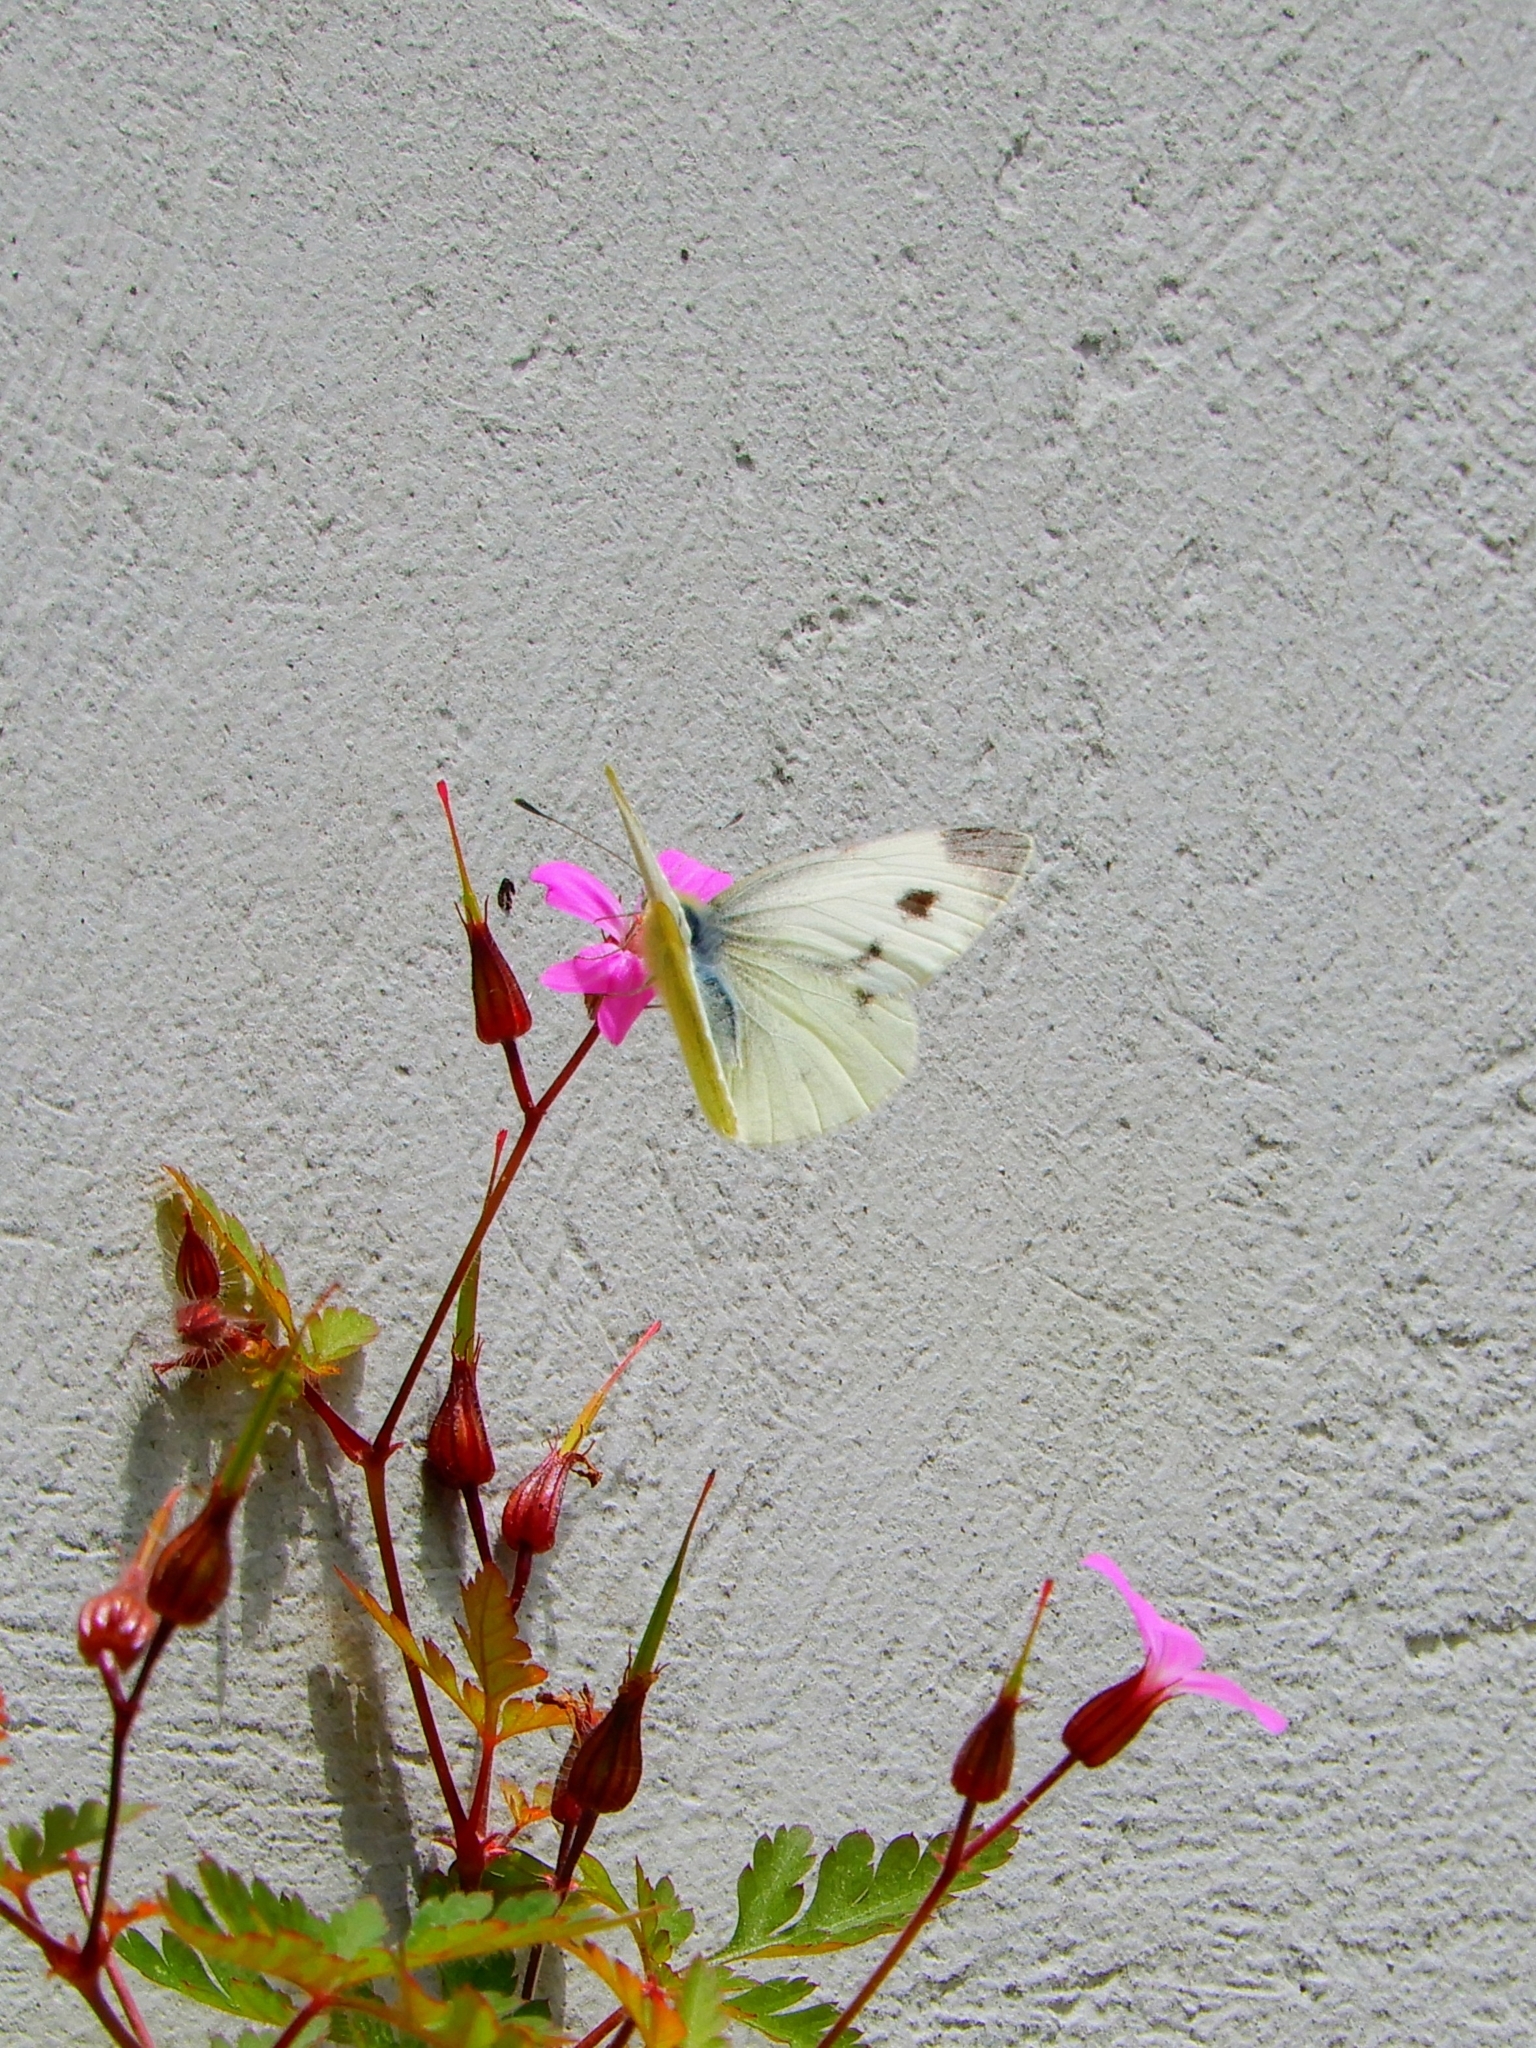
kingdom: Animalia
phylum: Arthropoda
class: Insecta
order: Lepidoptera
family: Pieridae
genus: Pieris
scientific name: Pieris rapae
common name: Small white
